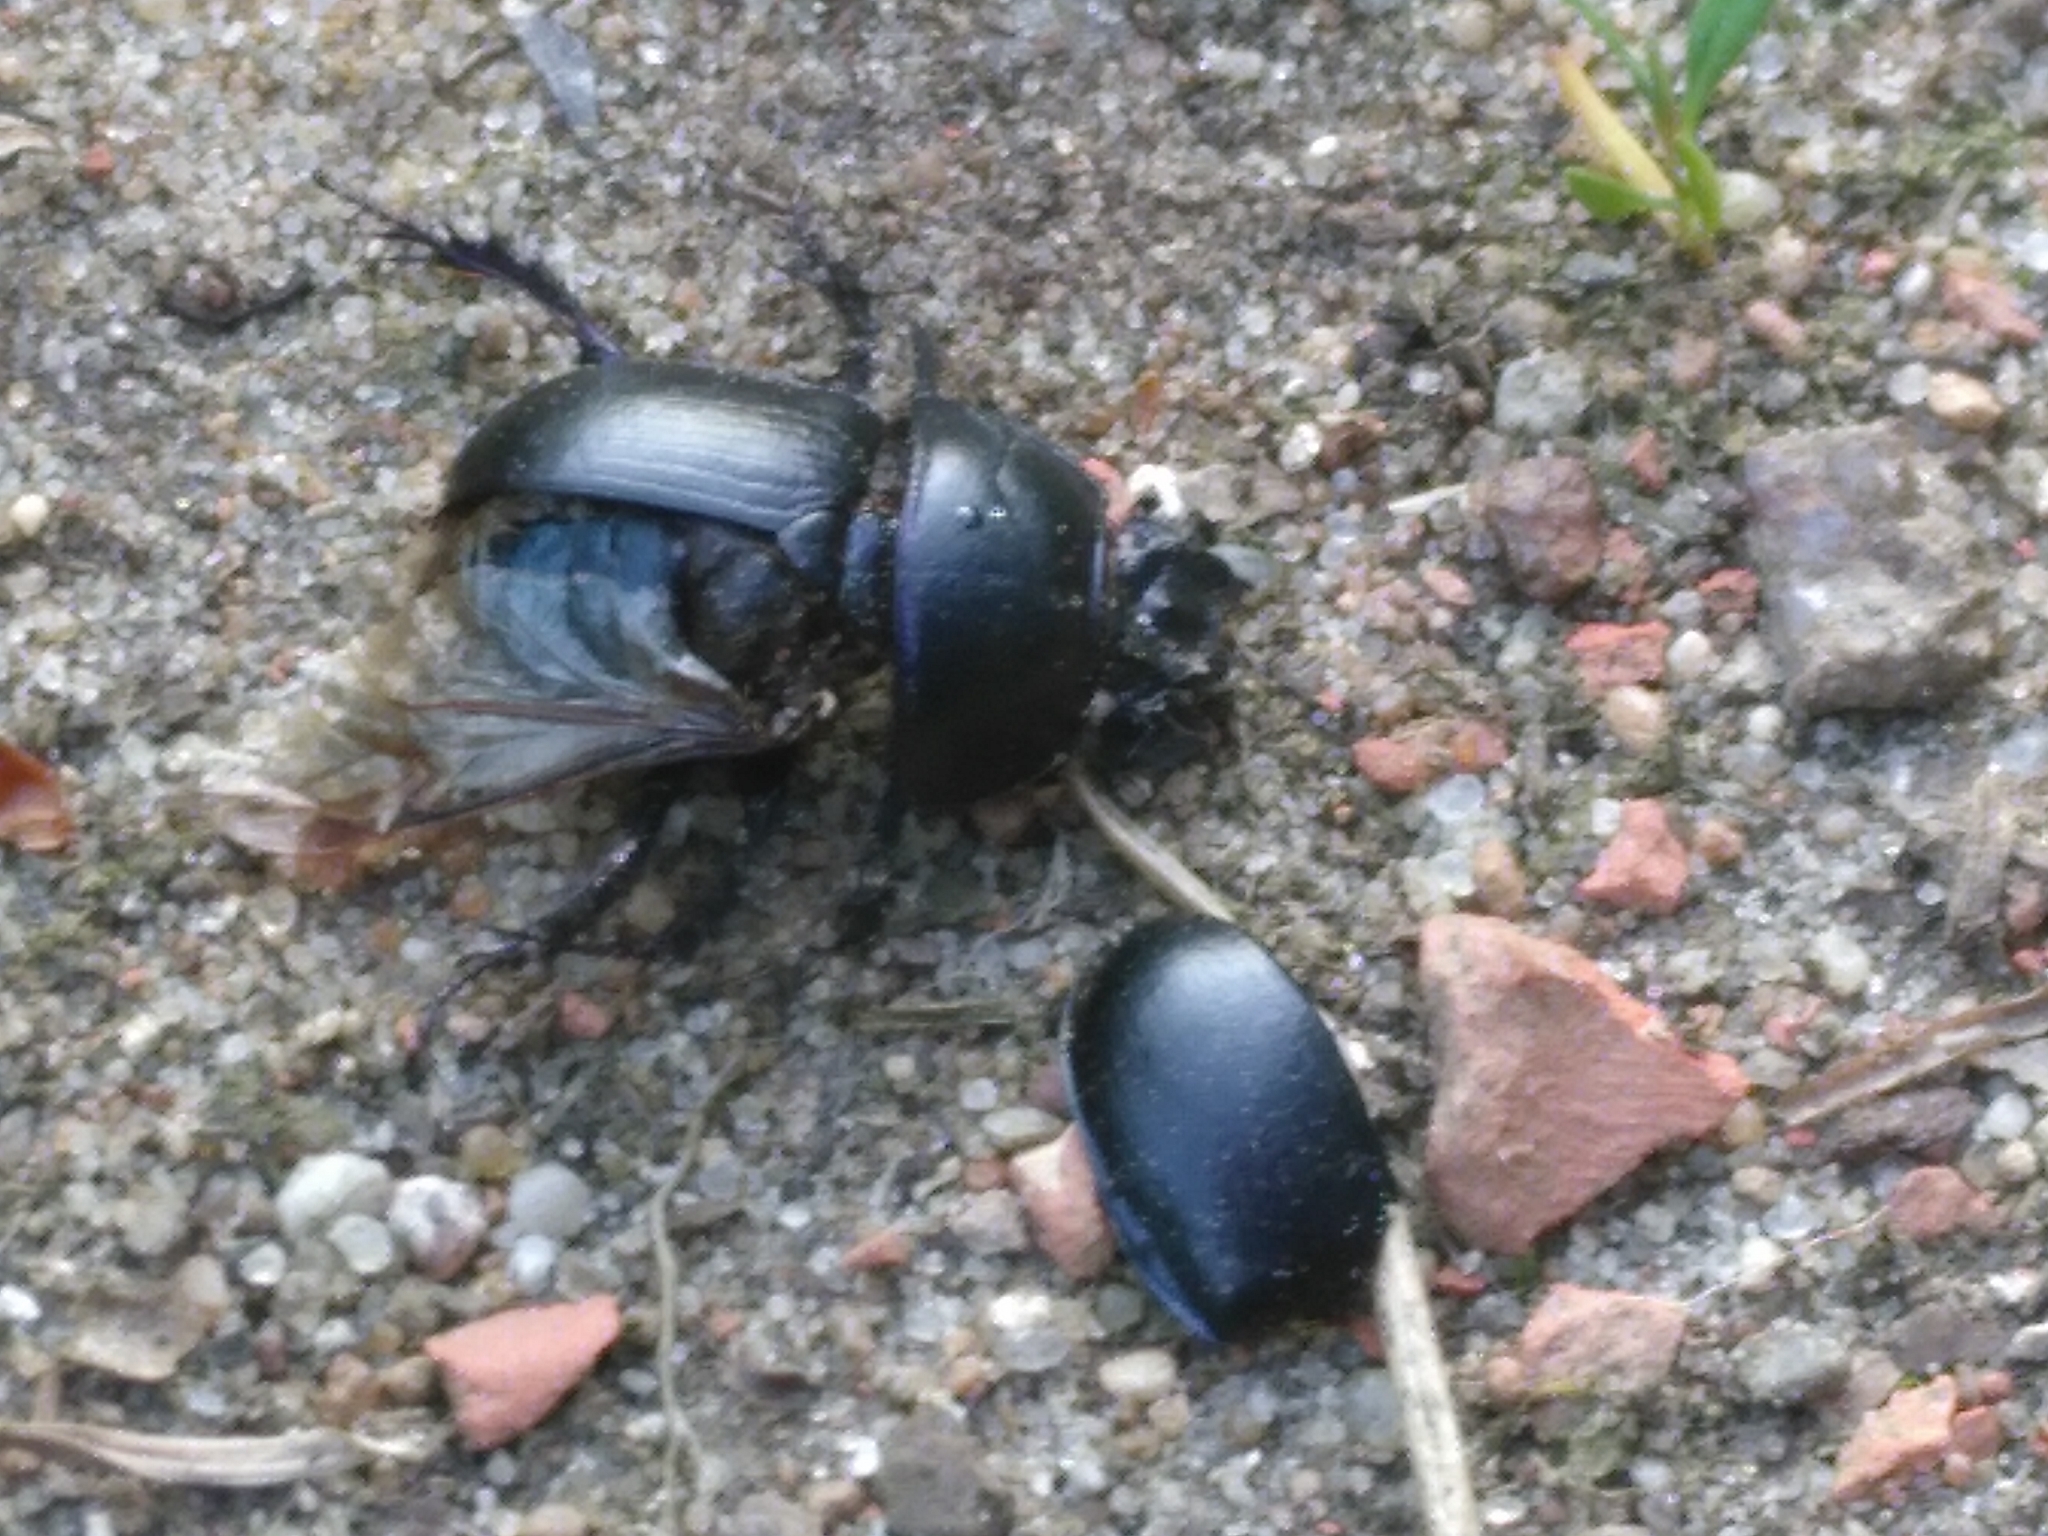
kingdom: Animalia
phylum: Arthropoda
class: Insecta
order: Coleoptera
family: Geotrupidae
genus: Anoplotrupes
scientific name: Anoplotrupes stercorosus
